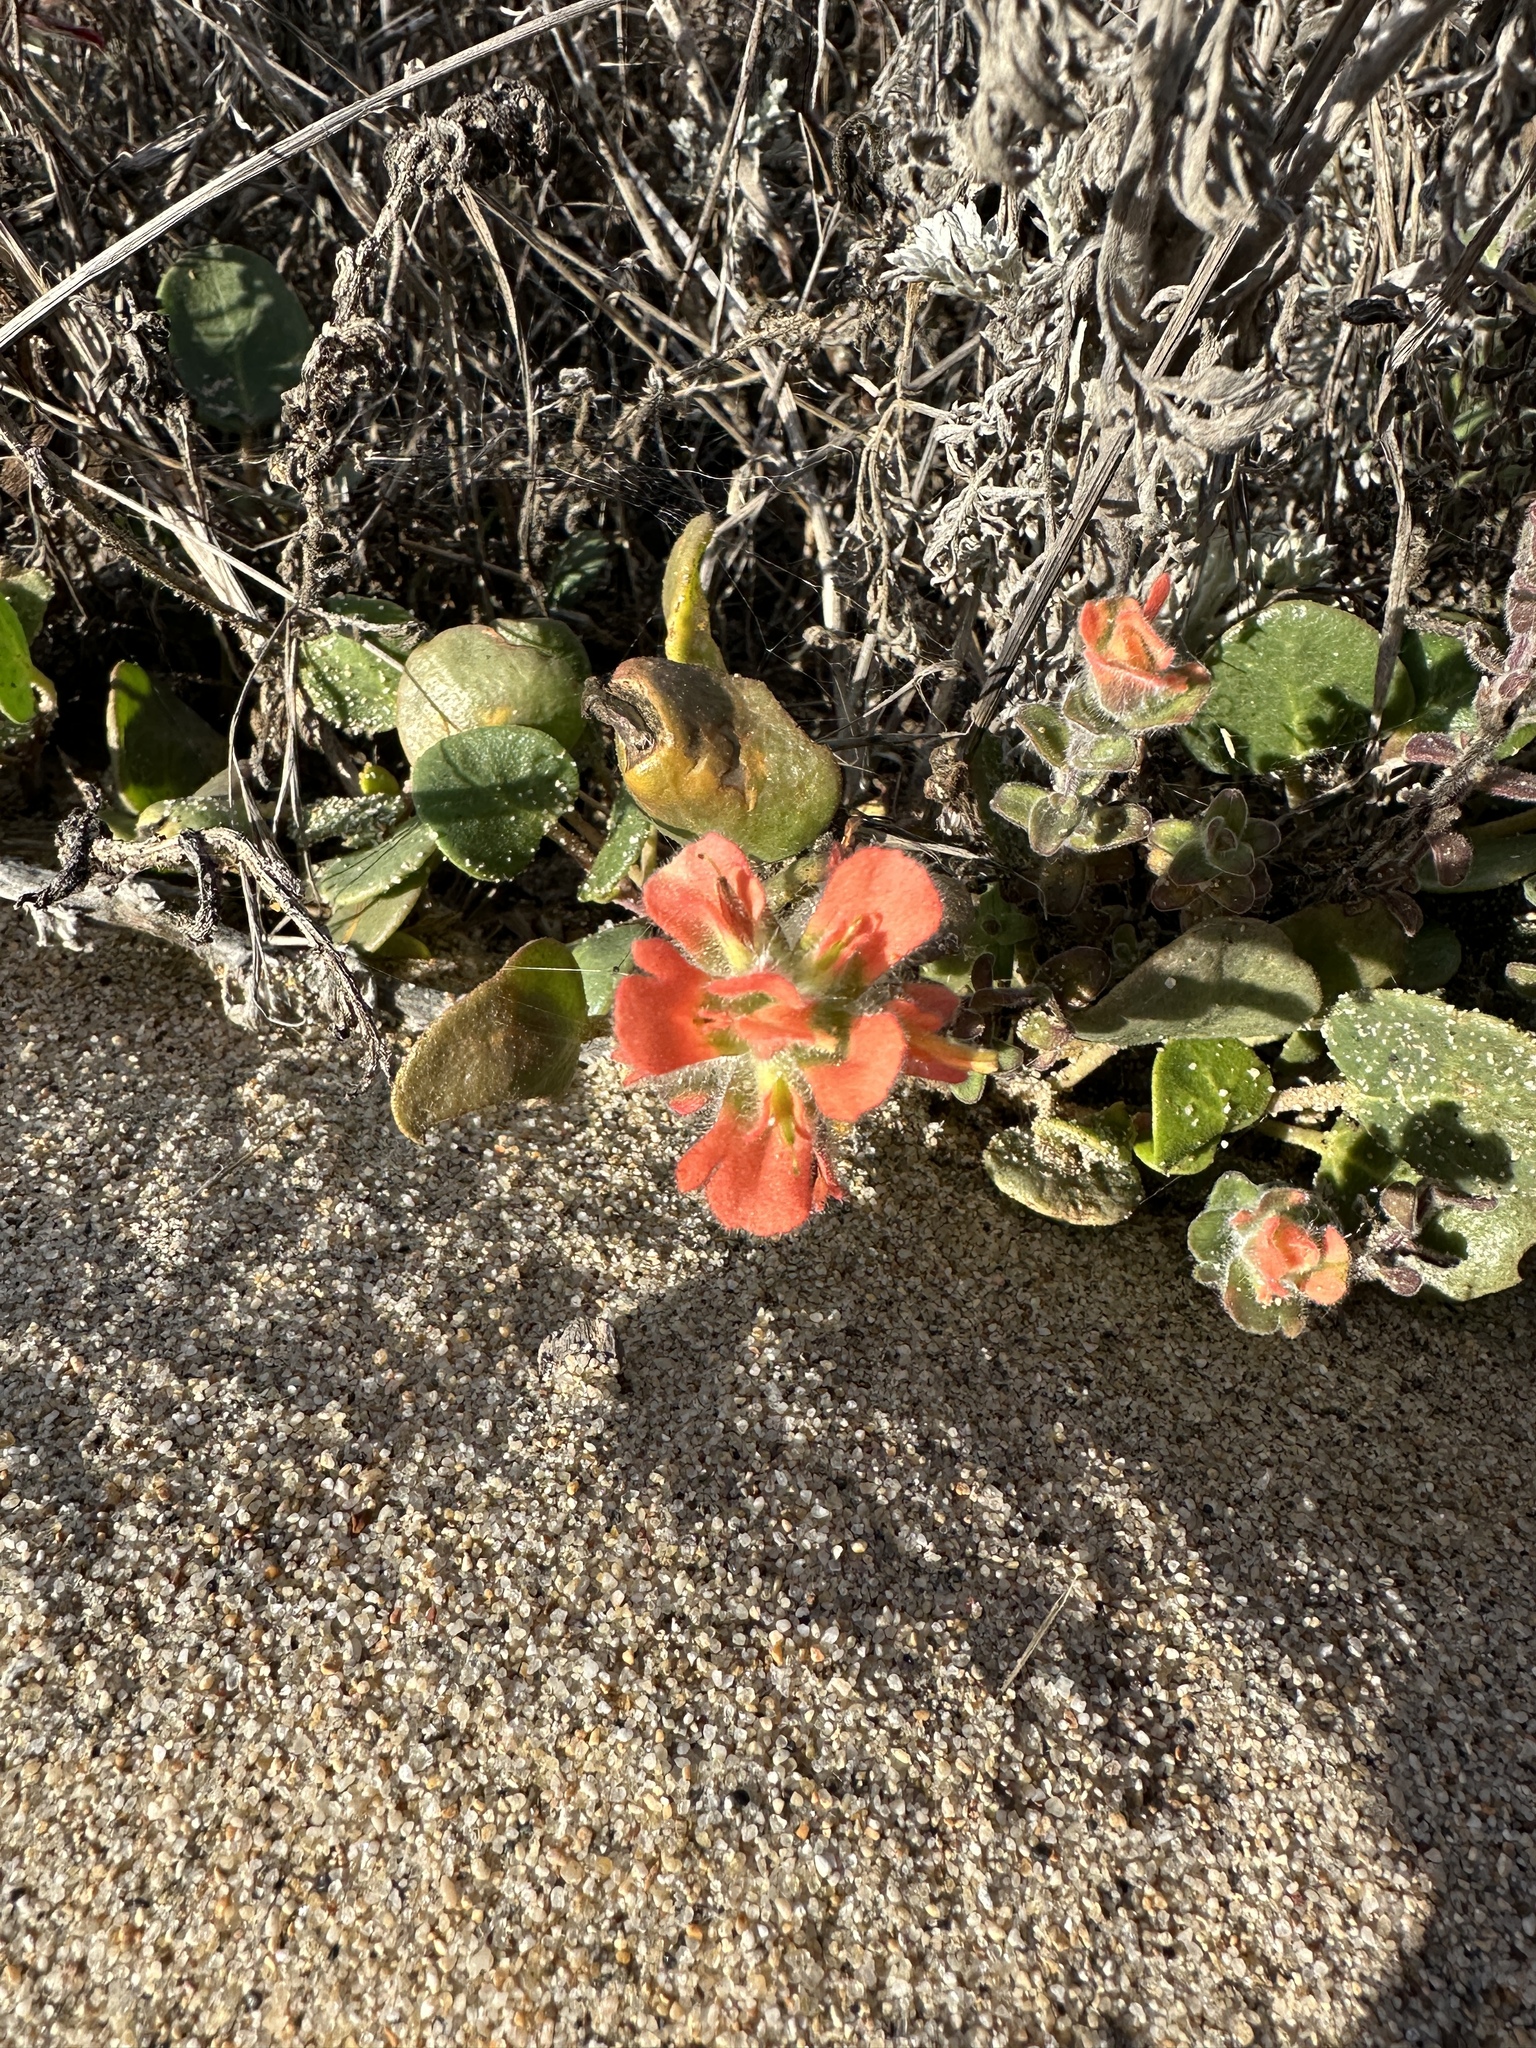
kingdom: Plantae
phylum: Tracheophyta
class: Magnoliopsida
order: Lamiales
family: Orobanchaceae
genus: Castilleja
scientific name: Castilleja latifolia
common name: Monterey indian paintbrush
